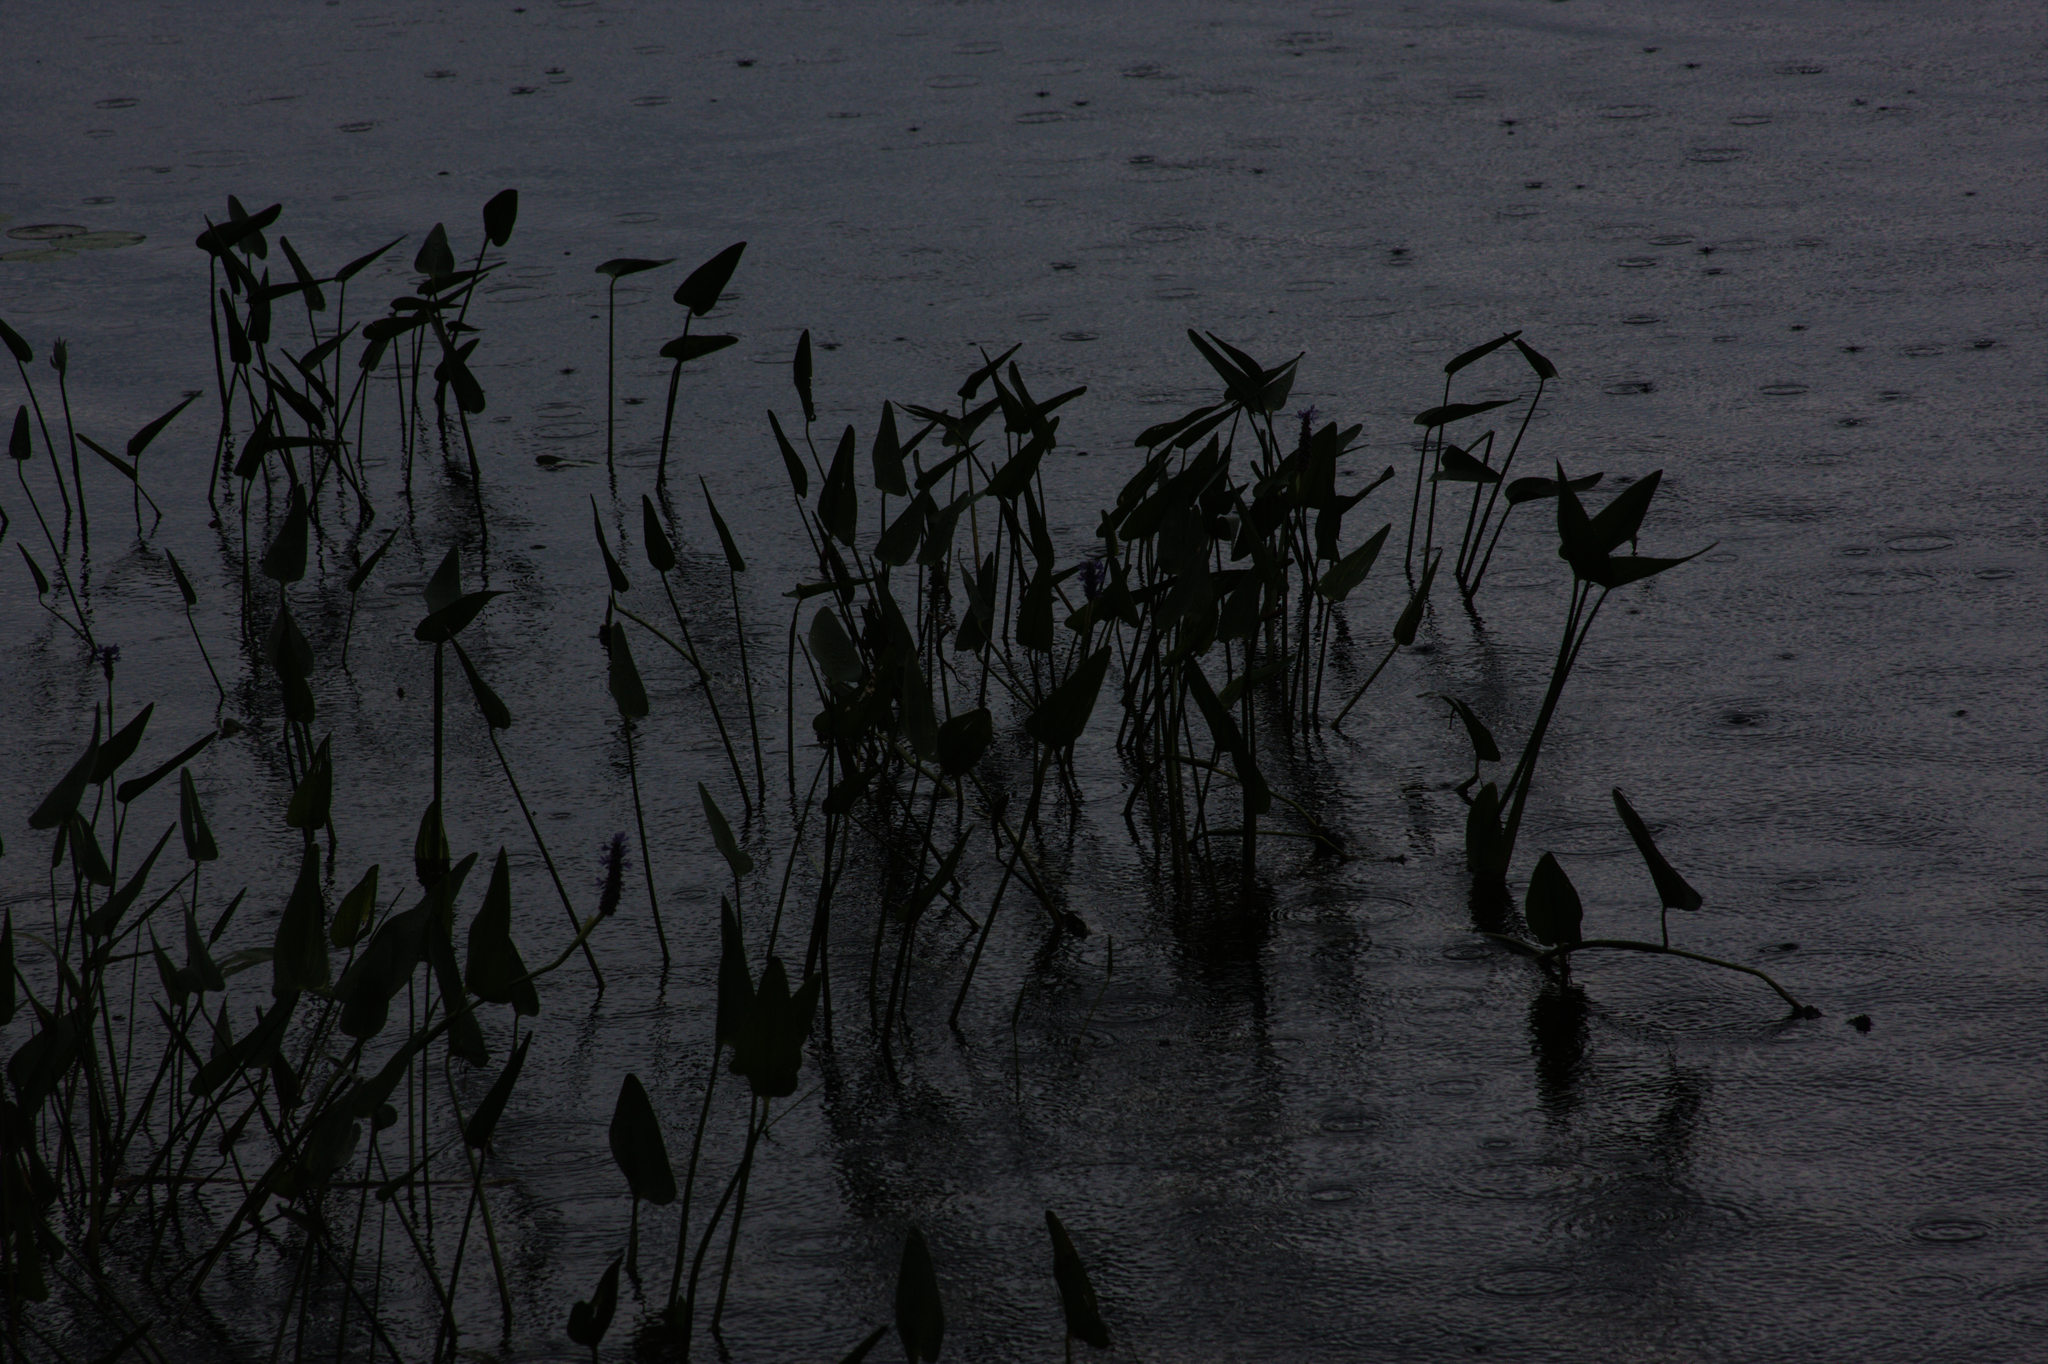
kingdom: Plantae
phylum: Tracheophyta
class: Liliopsida
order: Commelinales
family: Pontederiaceae
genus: Pontederia
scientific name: Pontederia cordata
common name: Pickerelweed
